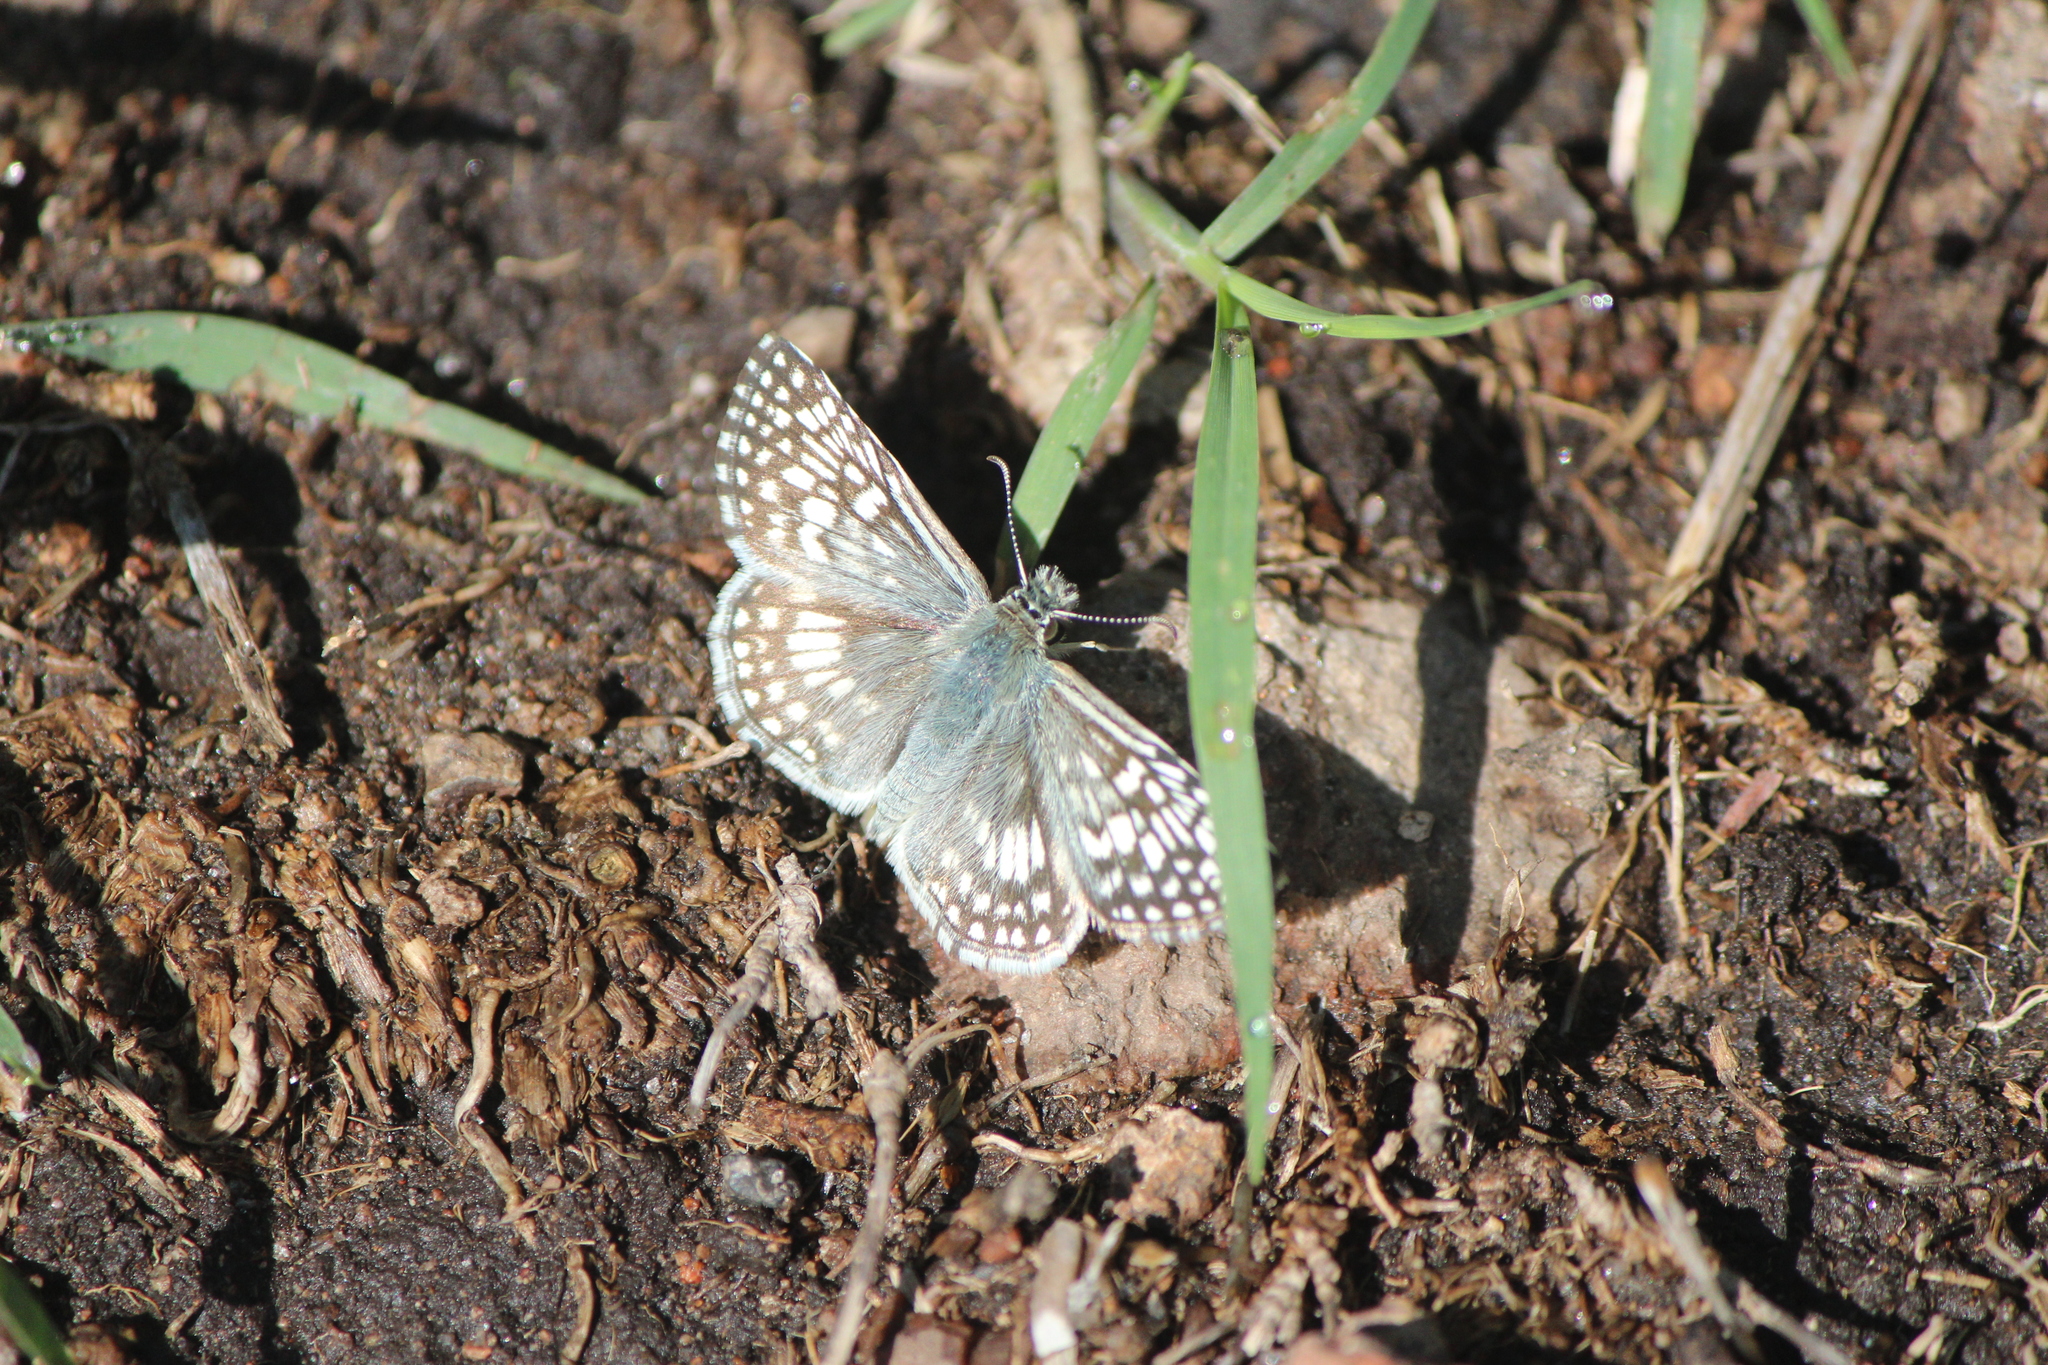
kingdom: Animalia
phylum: Arthropoda
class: Insecta
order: Lepidoptera
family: Hesperiidae
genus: Burnsius
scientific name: Burnsius philetas
